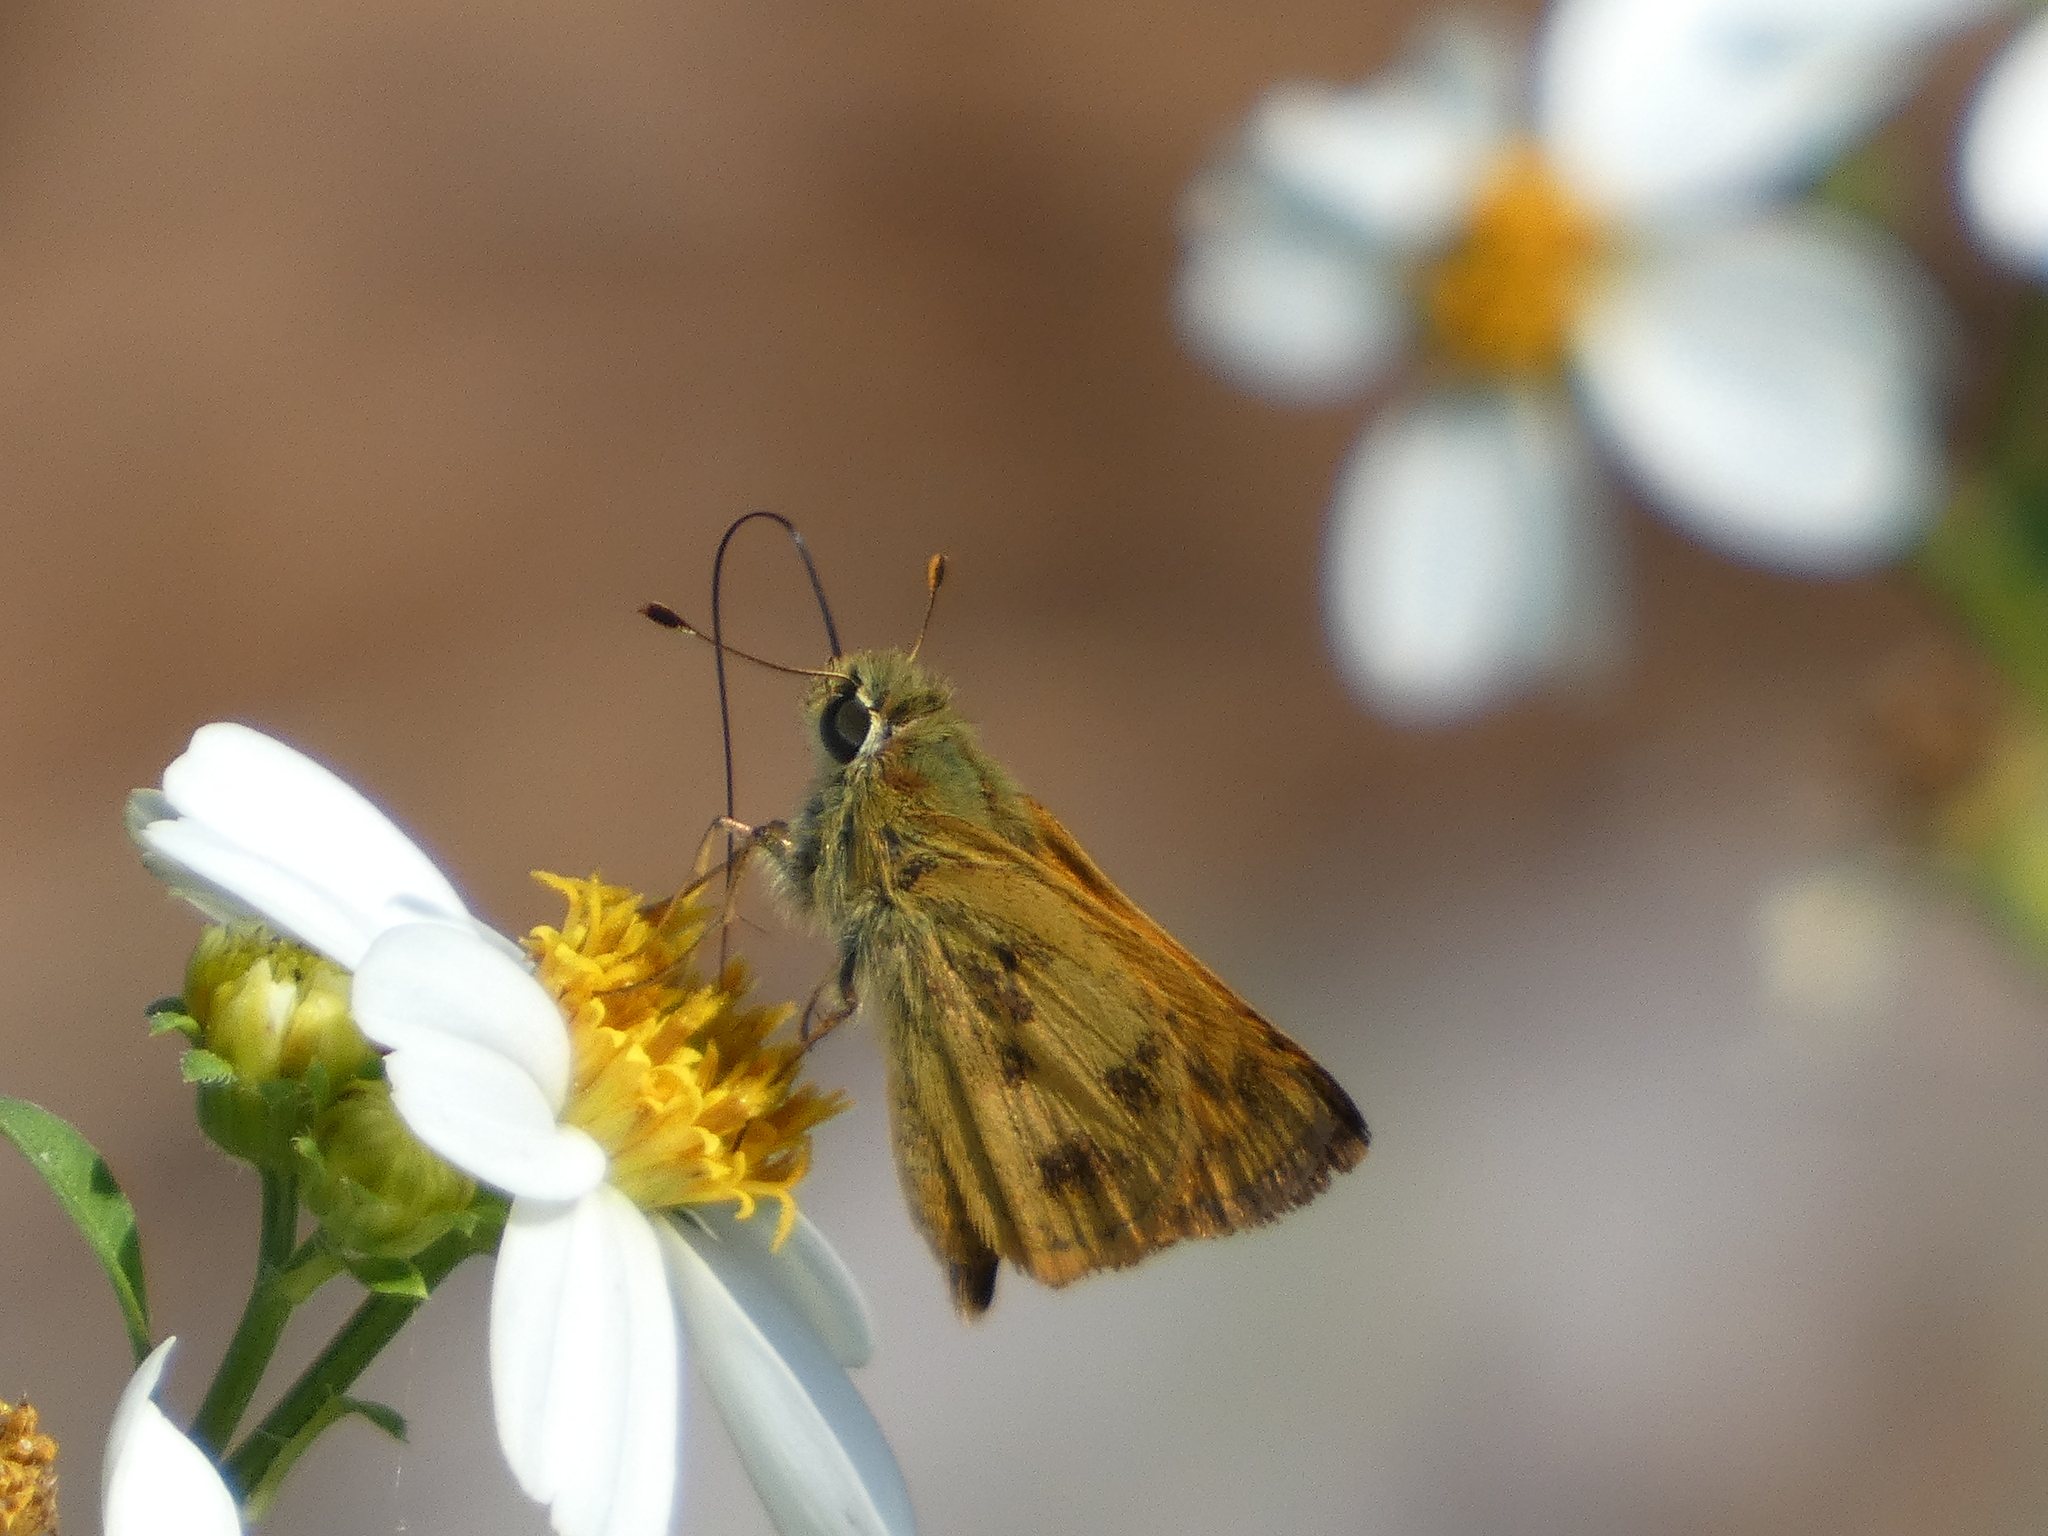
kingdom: Animalia
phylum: Arthropoda
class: Insecta
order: Lepidoptera
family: Hesperiidae
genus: Polites
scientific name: Polites vibex
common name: Whirlabout
